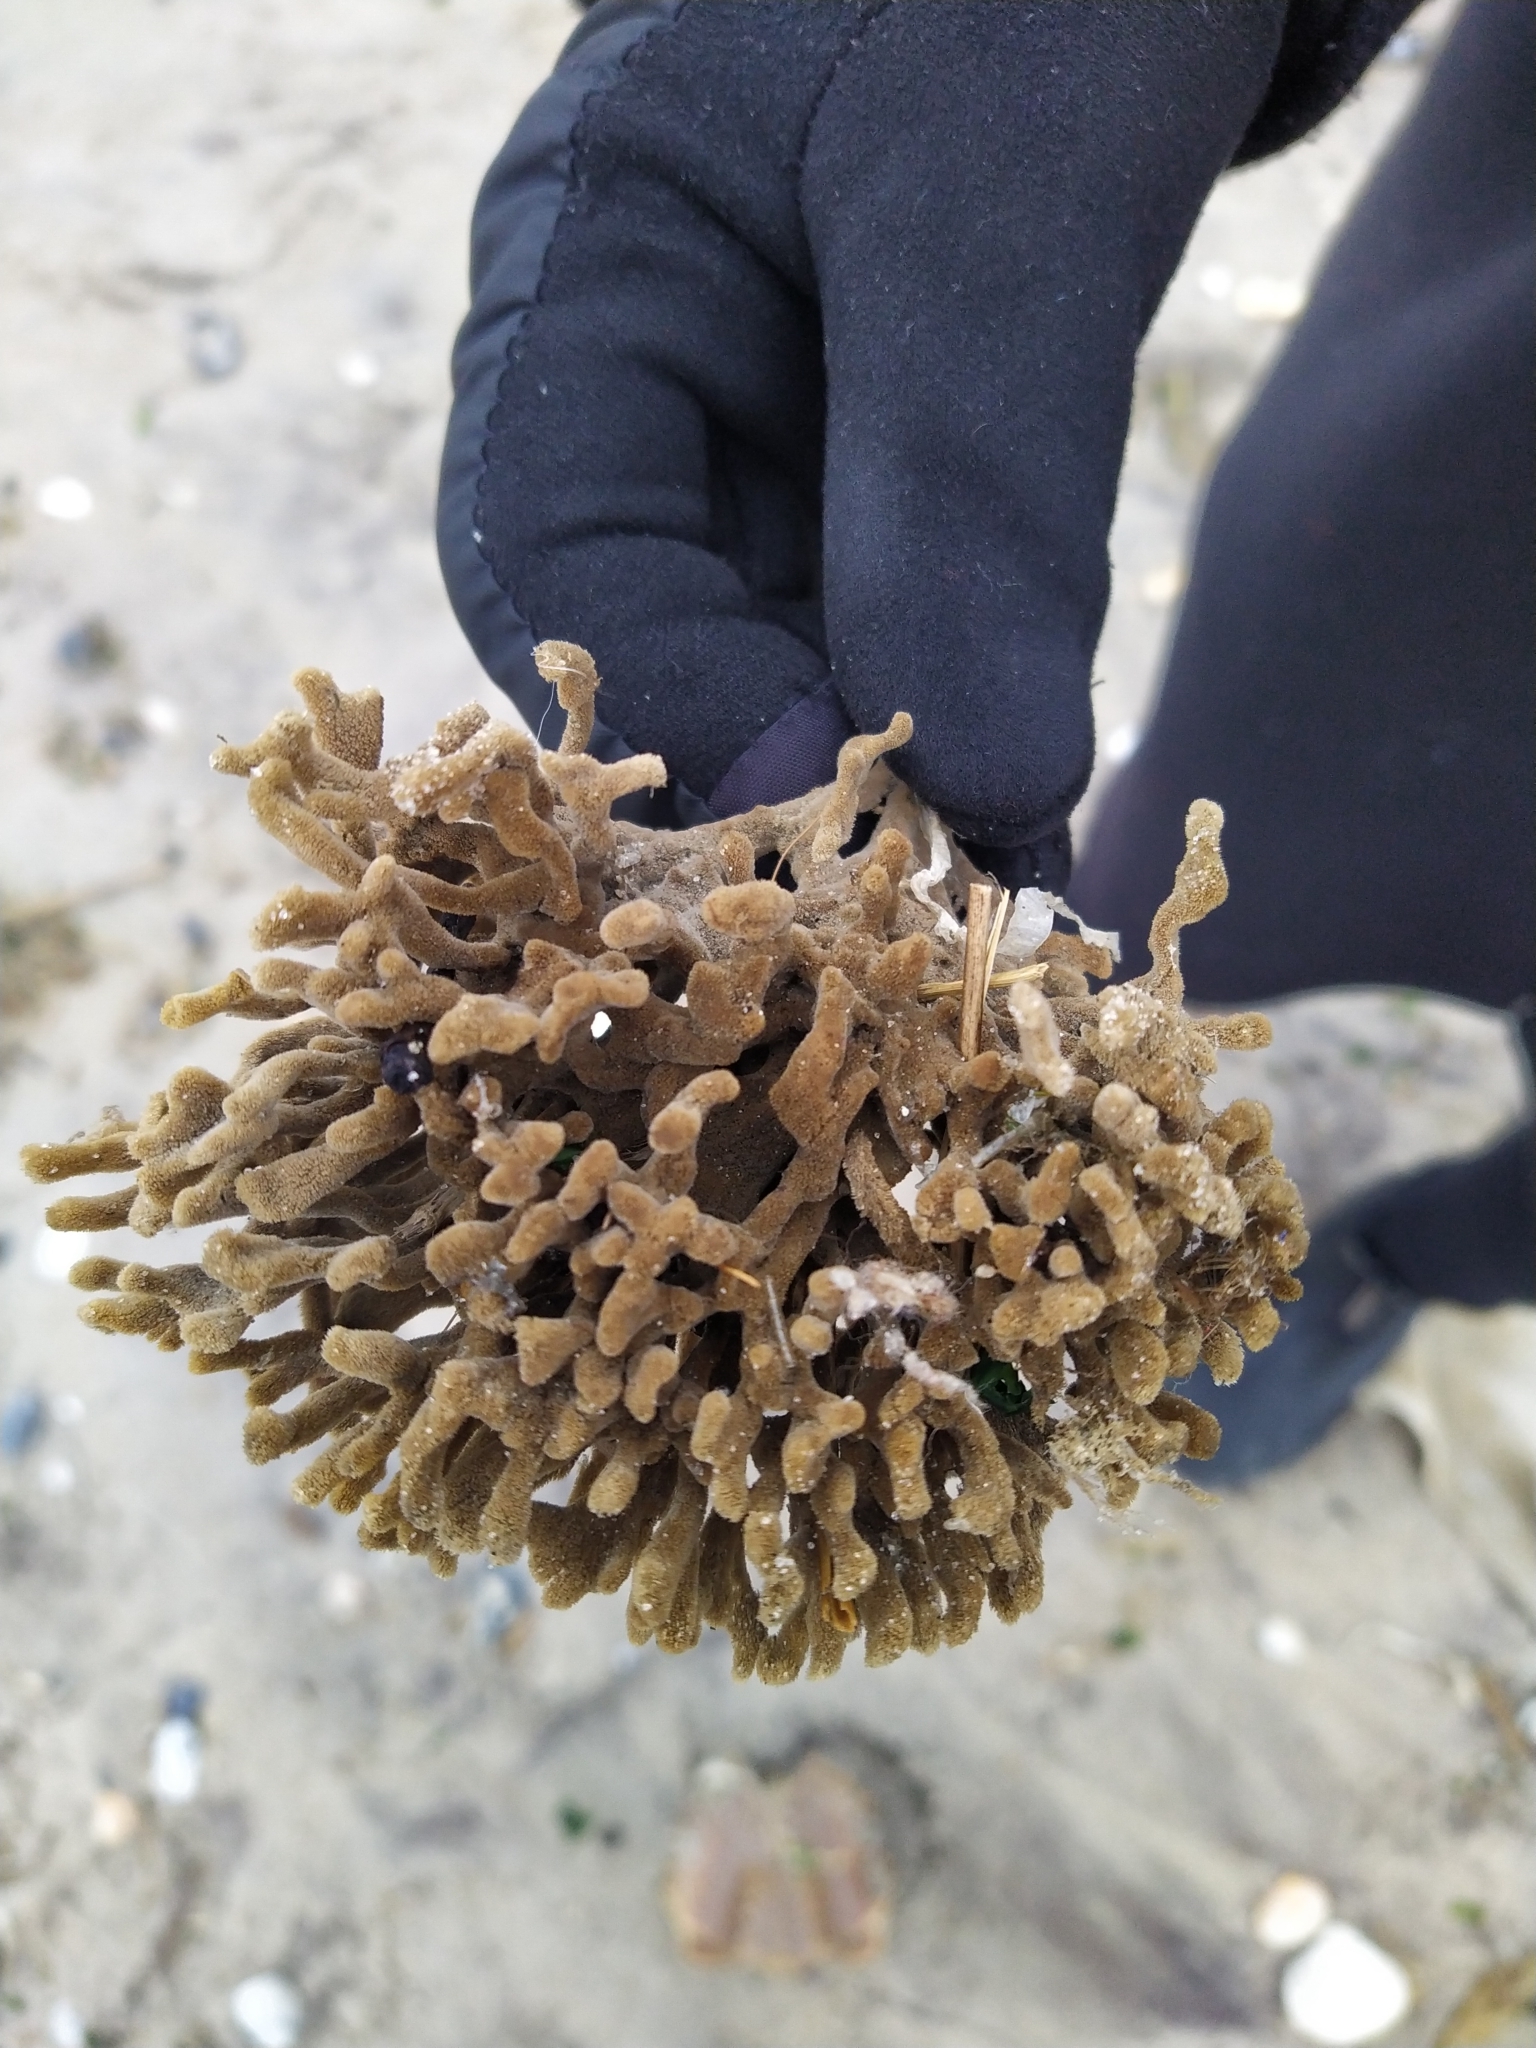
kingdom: Animalia
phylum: Porifera
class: Demospongiae
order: Poecilosclerida
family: Microcionidae
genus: Clathria
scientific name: Clathria prolifera
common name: Red beard sponge
